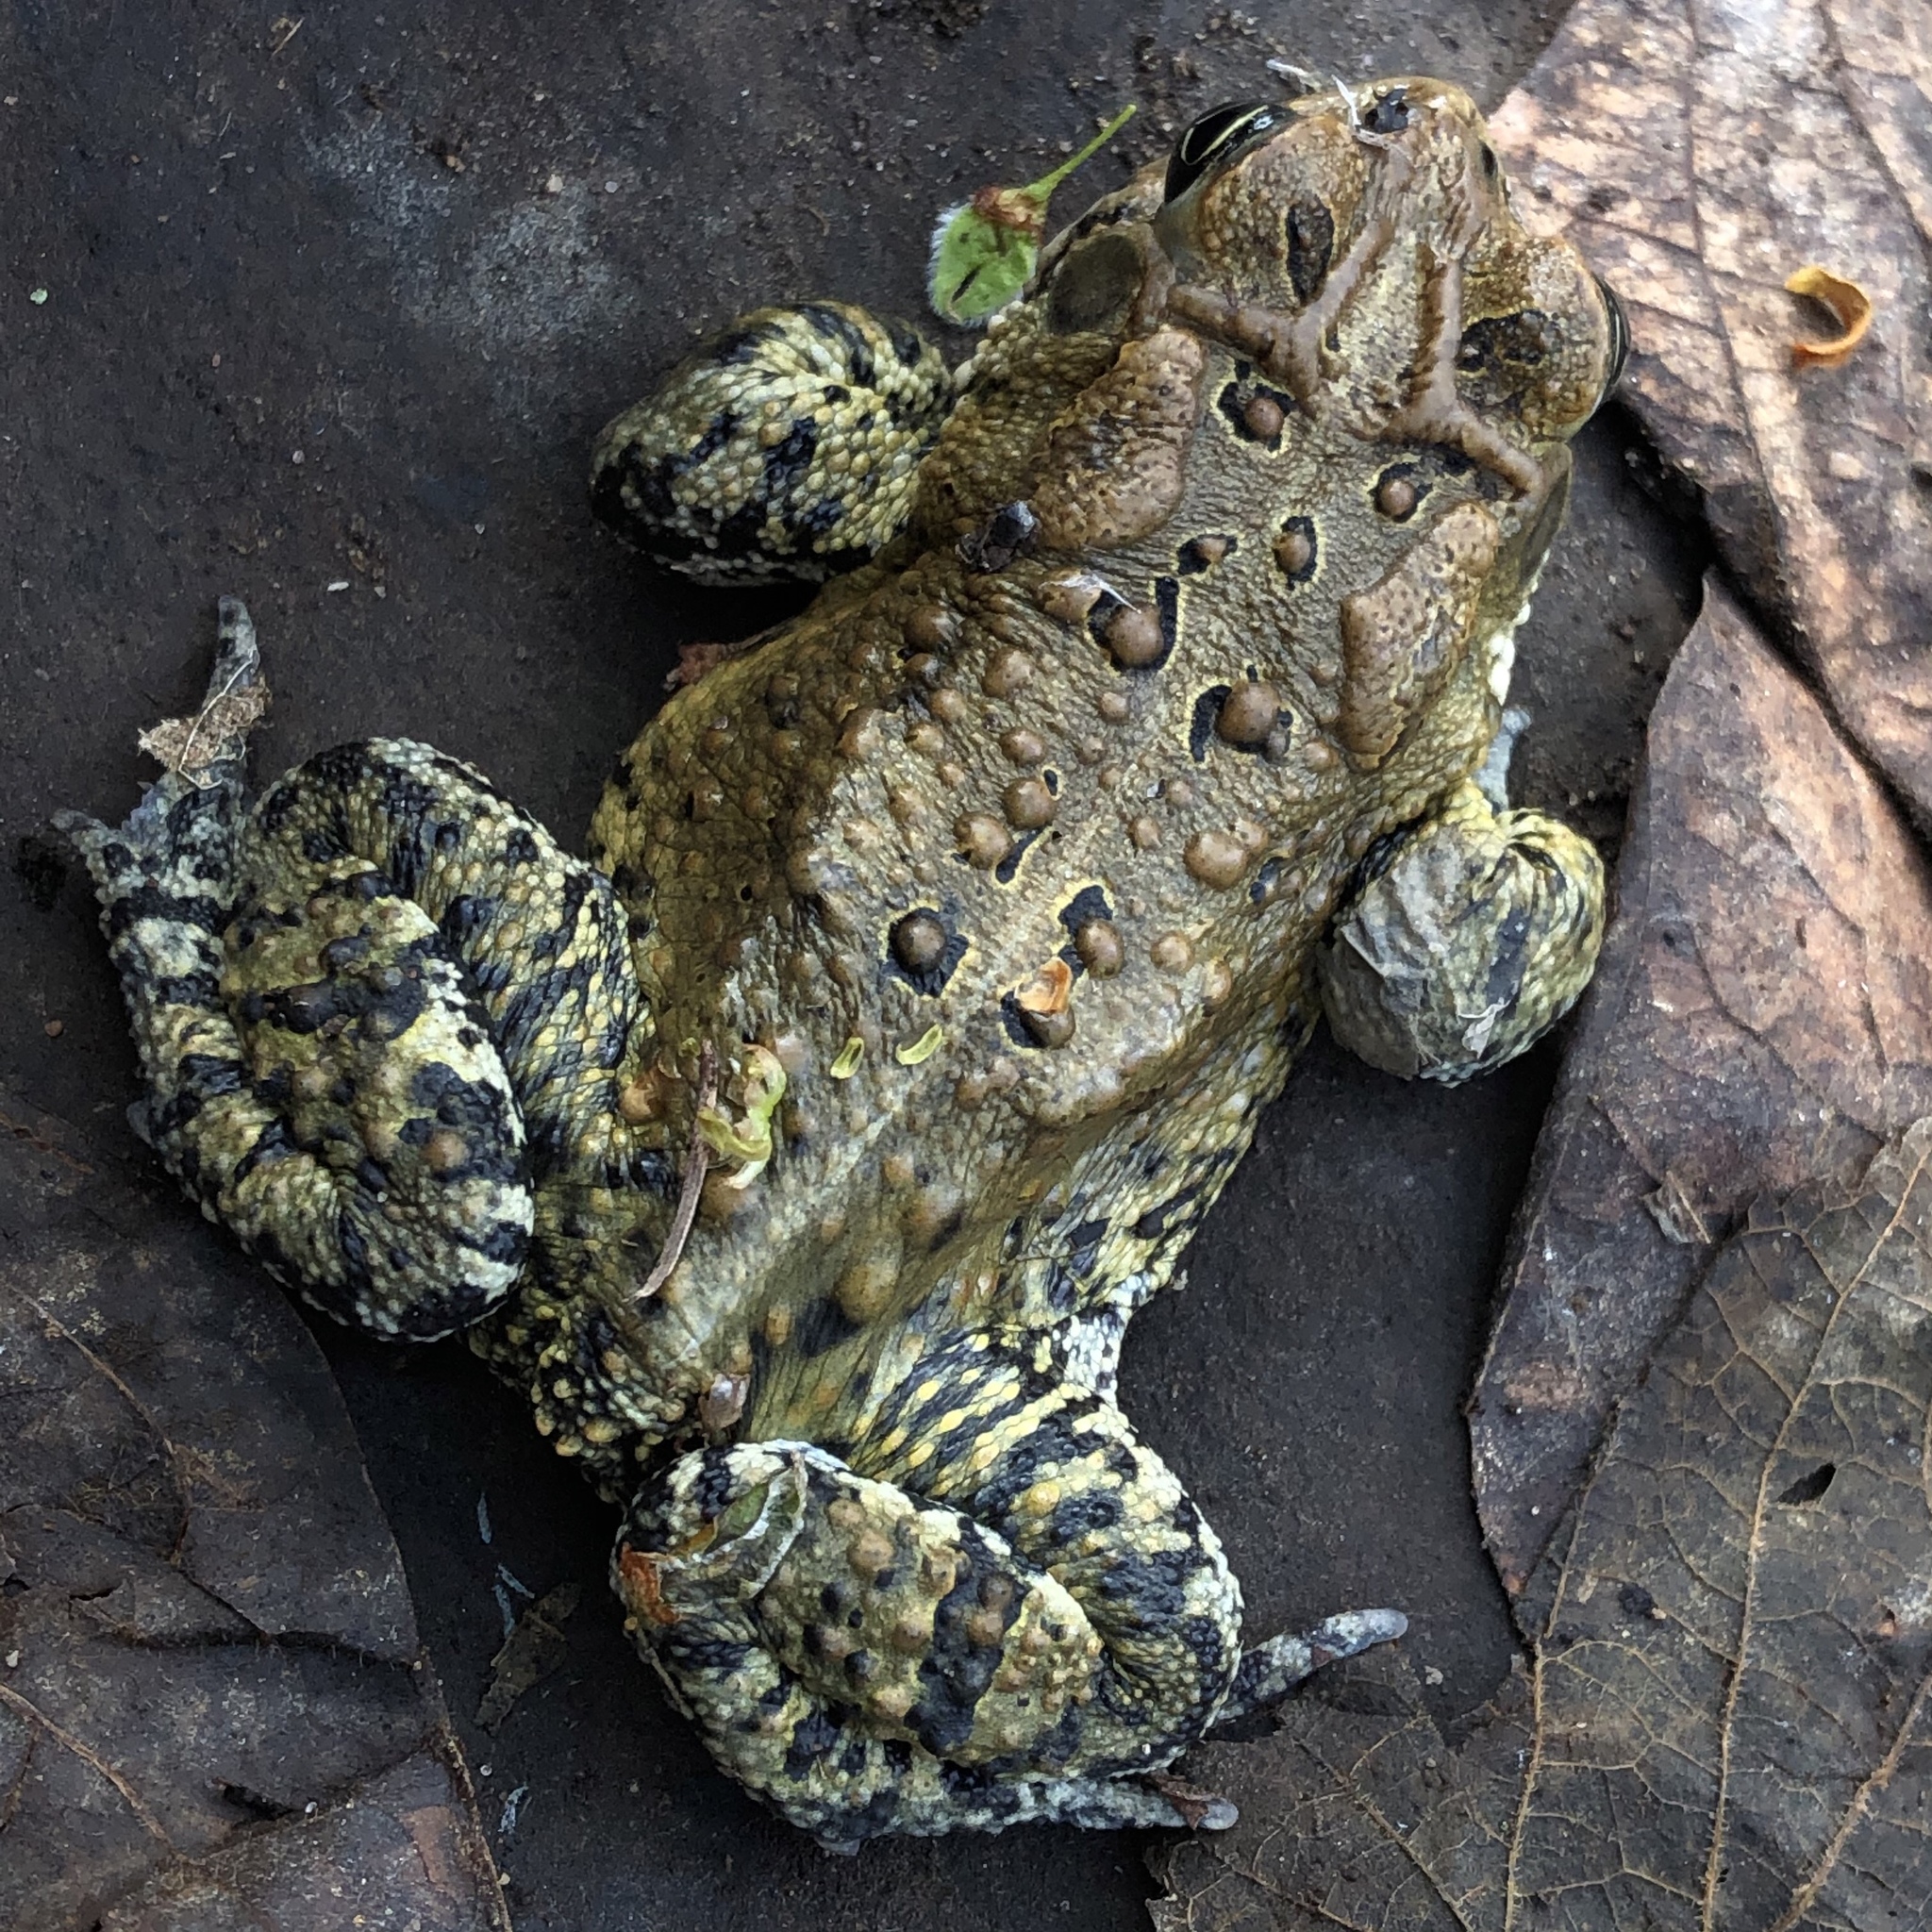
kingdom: Animalia
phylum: Chordata
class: Amphibia
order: Anura
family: Bufonidae
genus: Anaxyrus
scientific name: Anaxyrus americanus
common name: American toad
